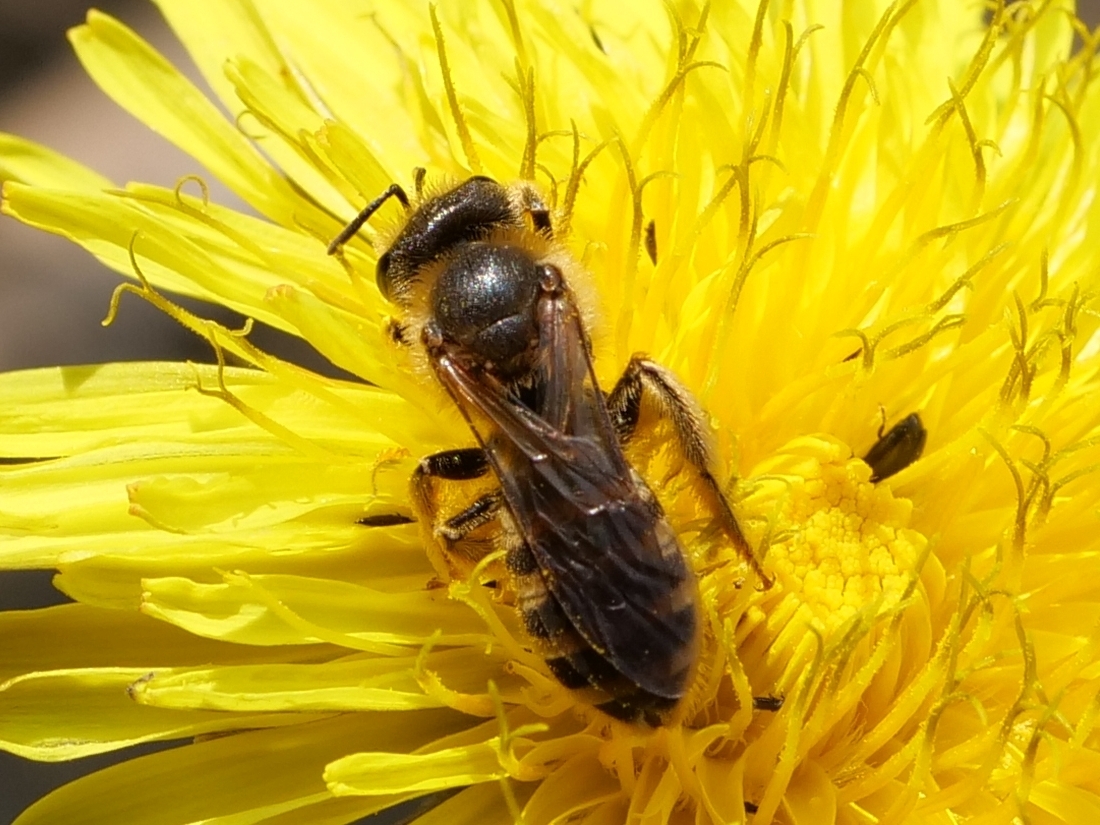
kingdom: Animalia
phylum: Arthropoda
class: Insecta
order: Hymenoptera
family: Halictidae
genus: Halictus
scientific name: Halictus scabiosae
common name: Great banded furrow bee
